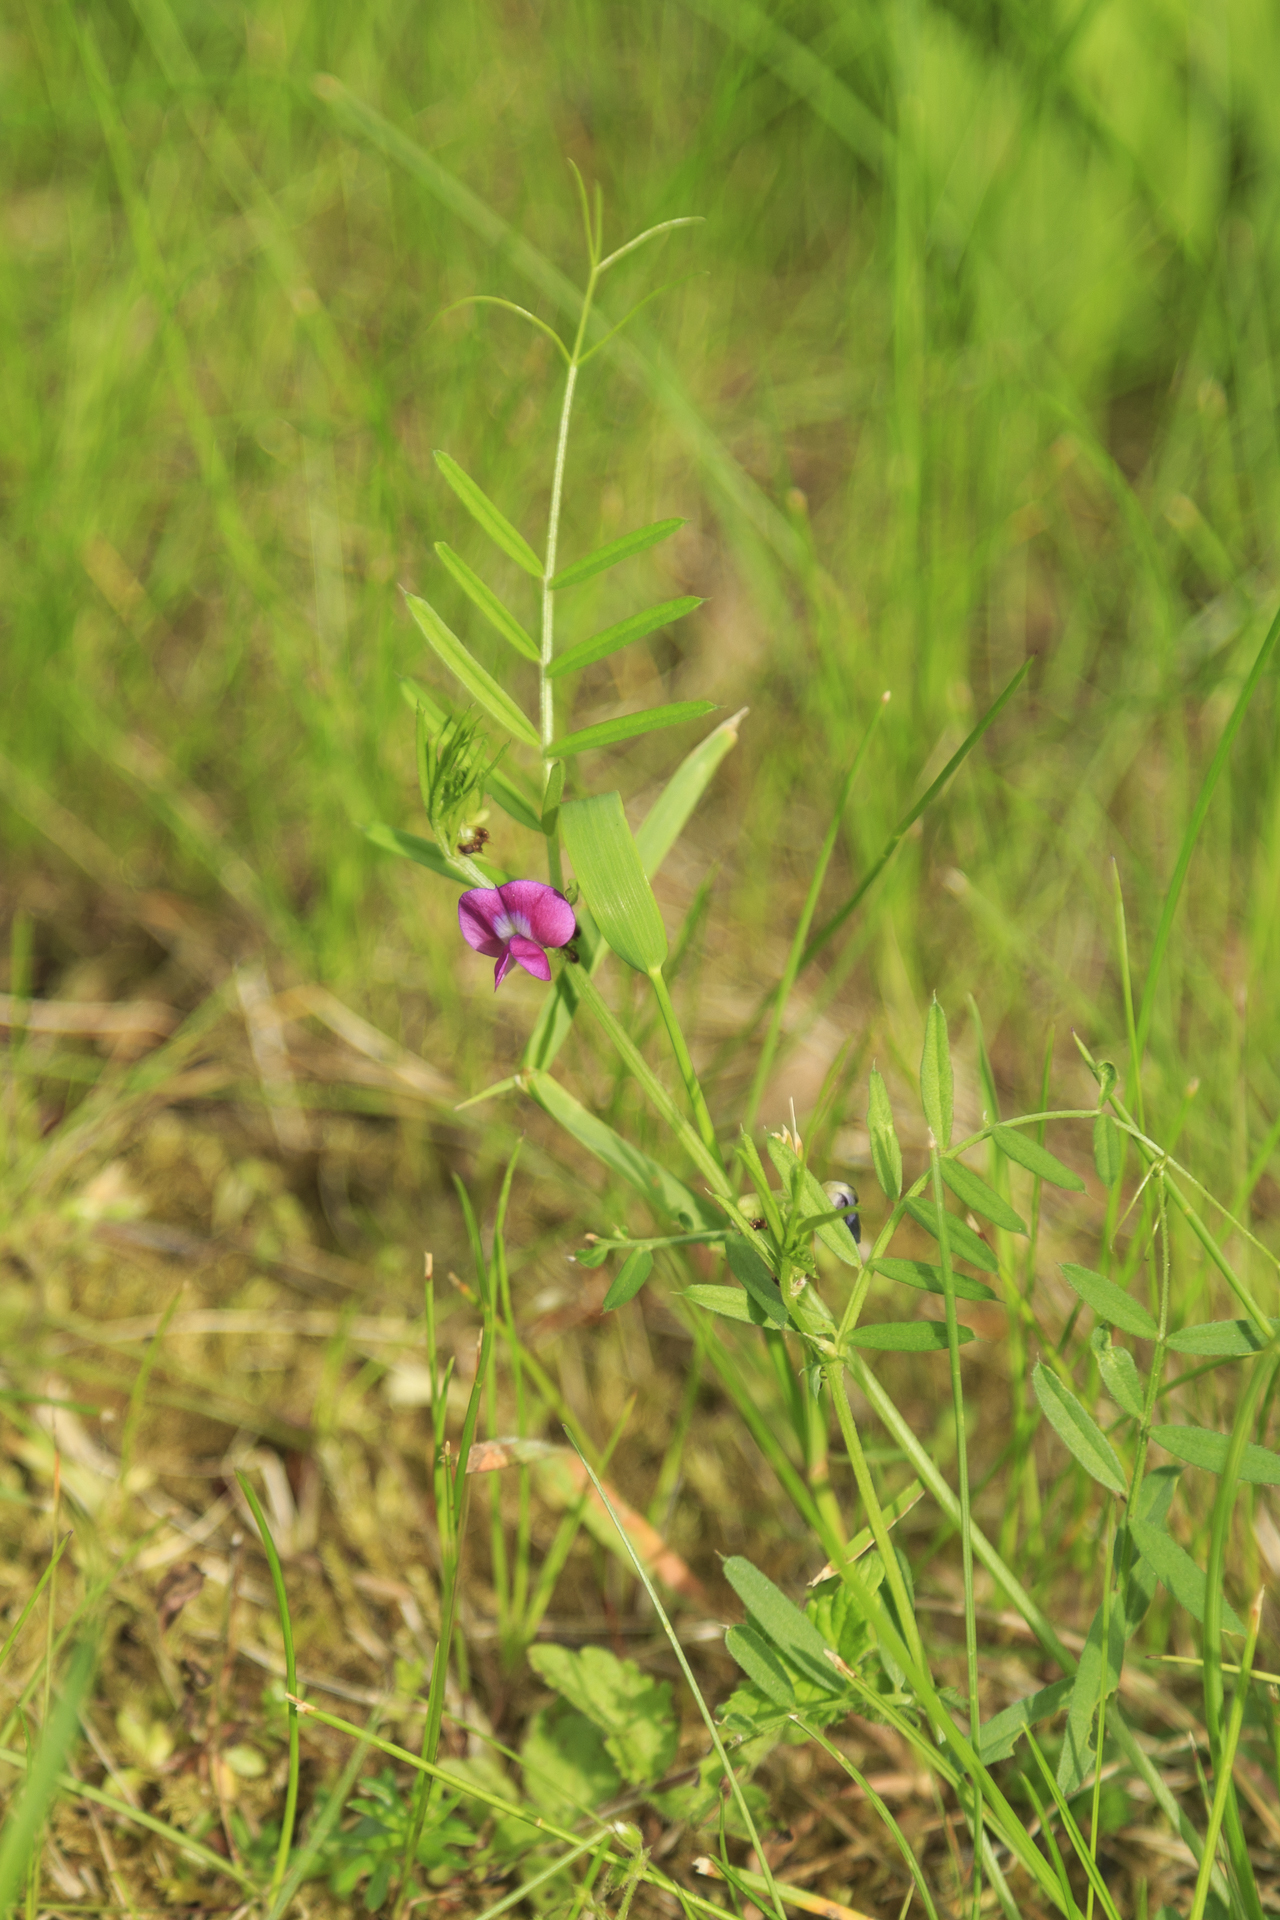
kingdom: Plantae
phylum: Tracheophyta
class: Magnoliopsida
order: Fabales
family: Fabaceae
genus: Vicia
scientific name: Vicia sativa
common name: Garden vetch
